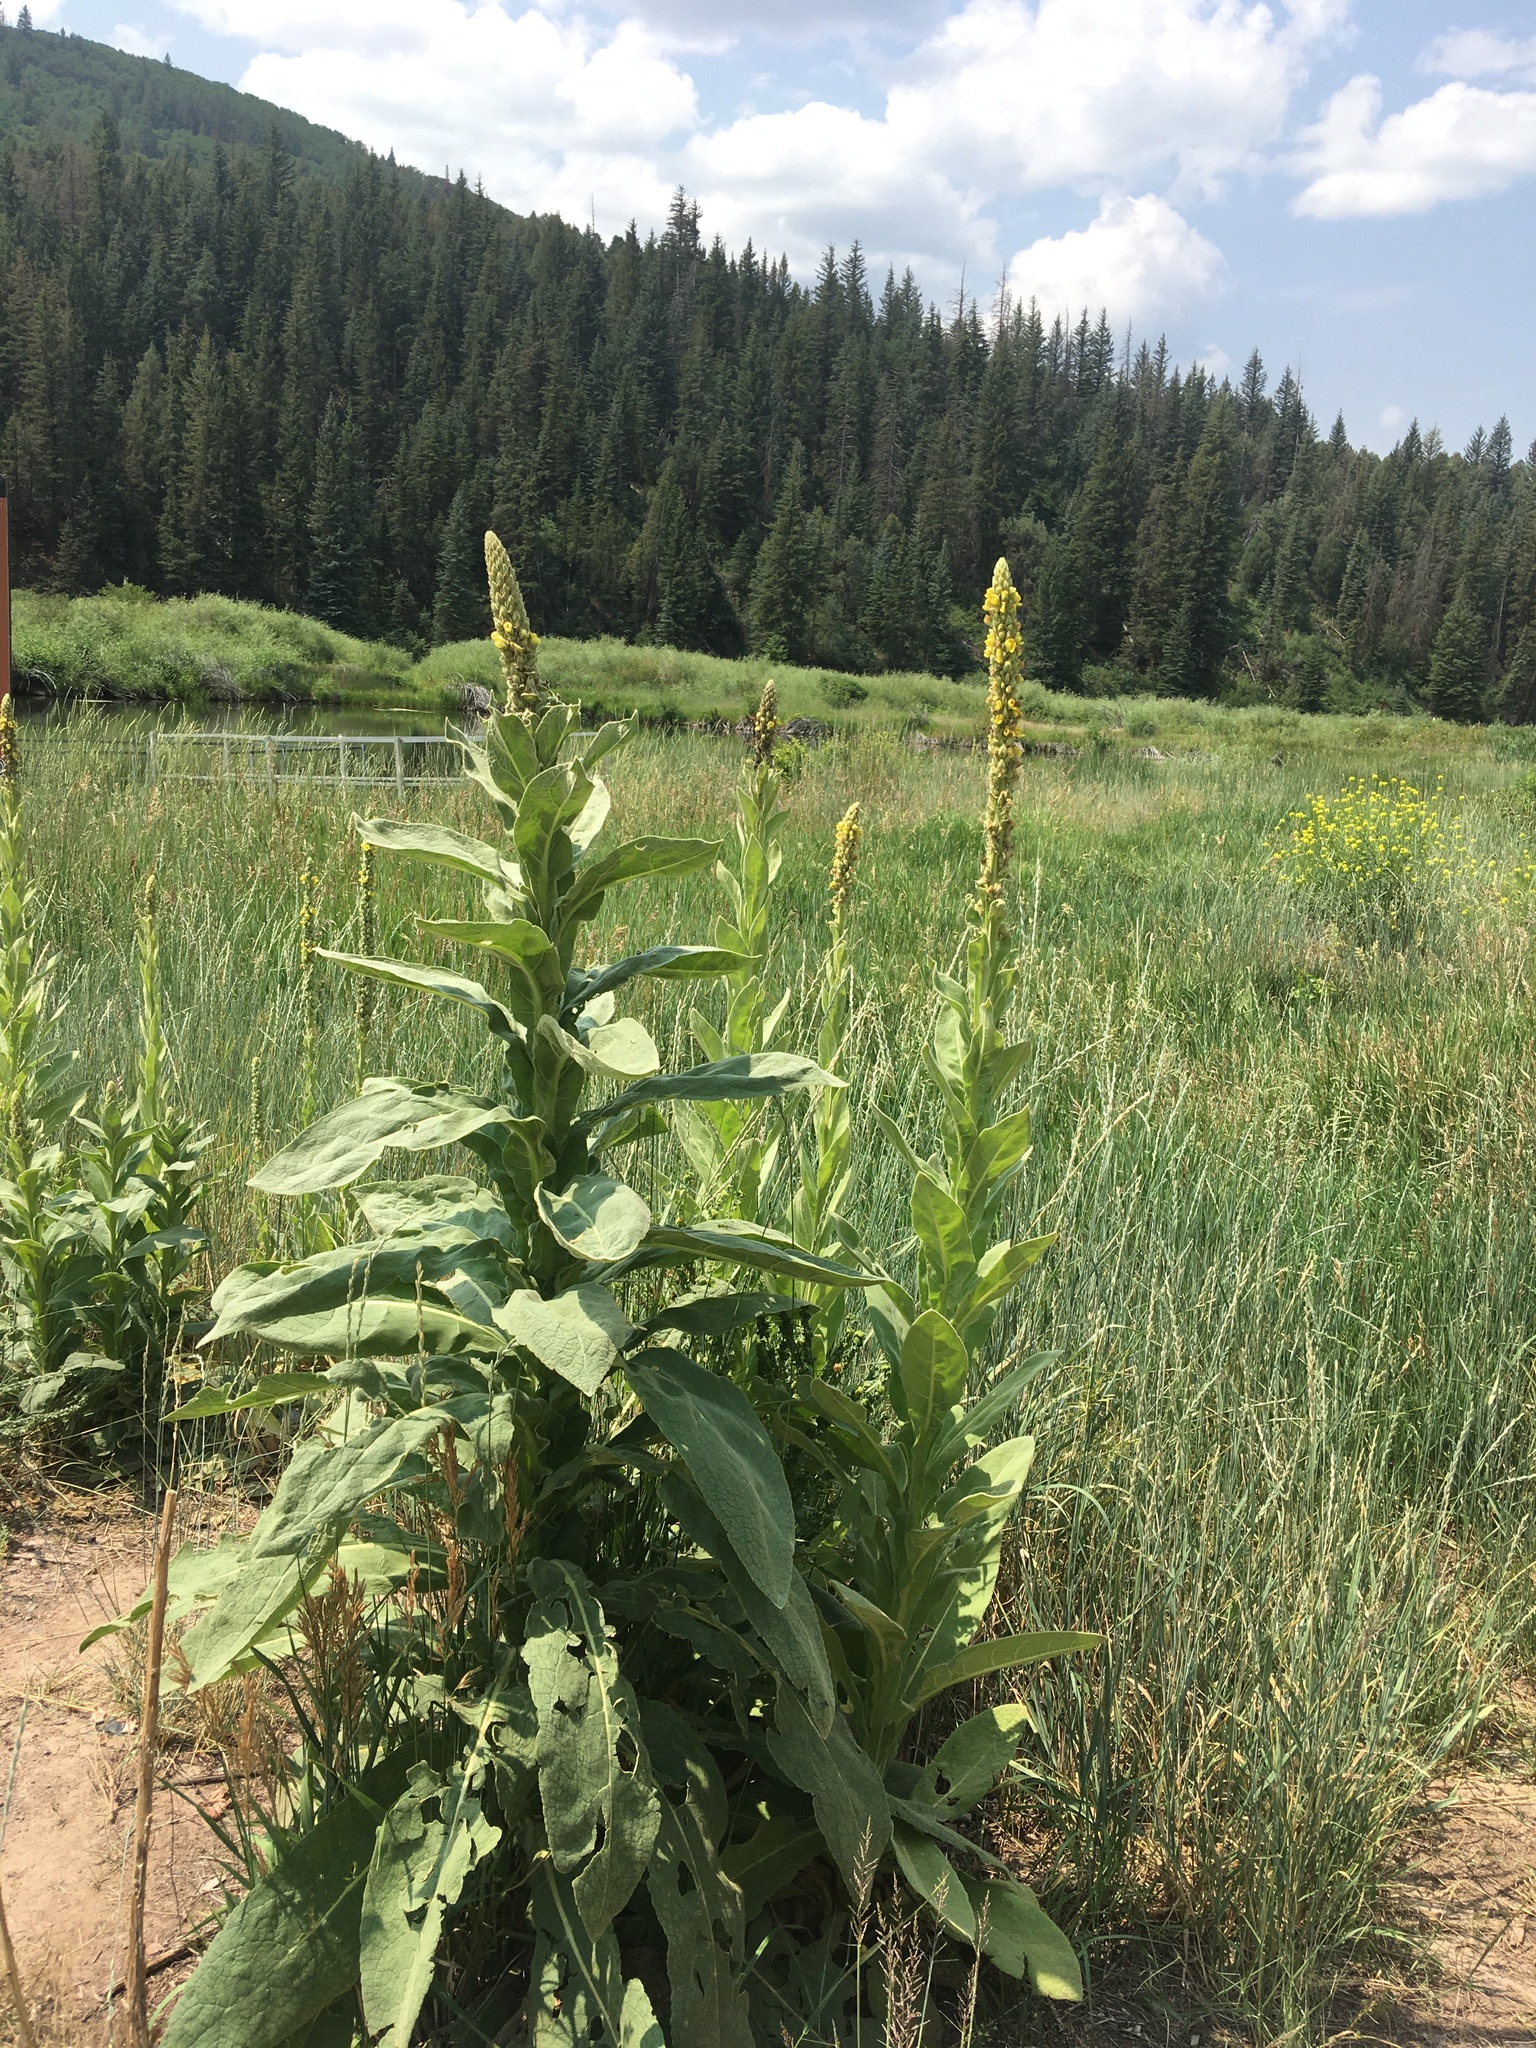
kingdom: Plantae
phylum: Tracheophyta
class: Magnoliopsida
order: Lamiales
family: Scrophulariaceae
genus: Verbascum
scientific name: Verbascum thapsus
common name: Common mullein
